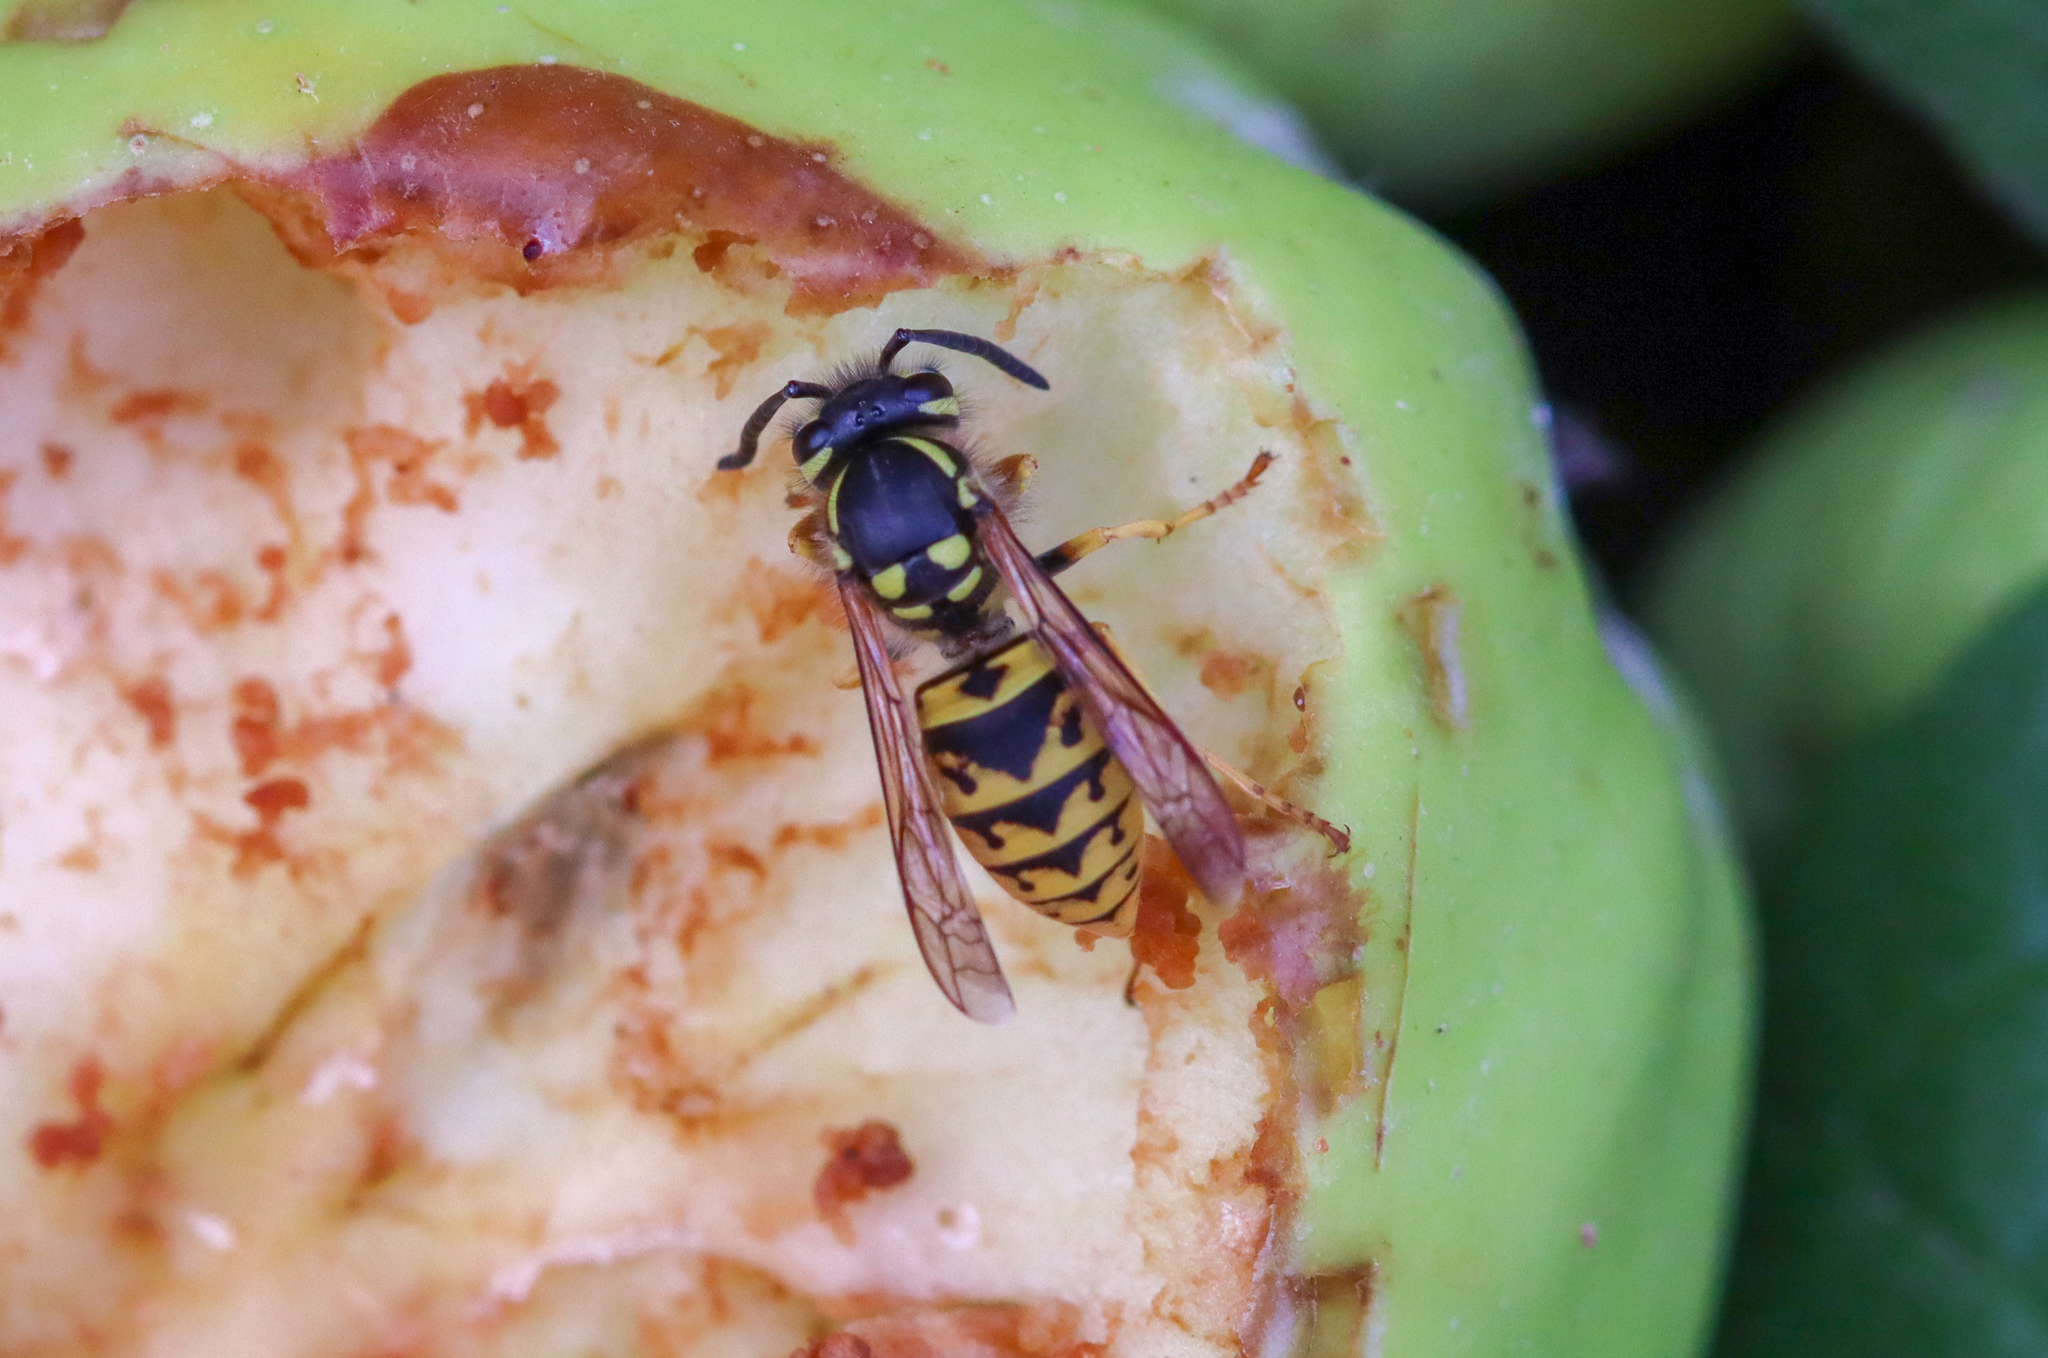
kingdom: Animalia
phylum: Arthropoda
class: Insecta
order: Hymenoptera
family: Vespidae
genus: Vespula
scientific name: Vespula germanica
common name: German wasp
